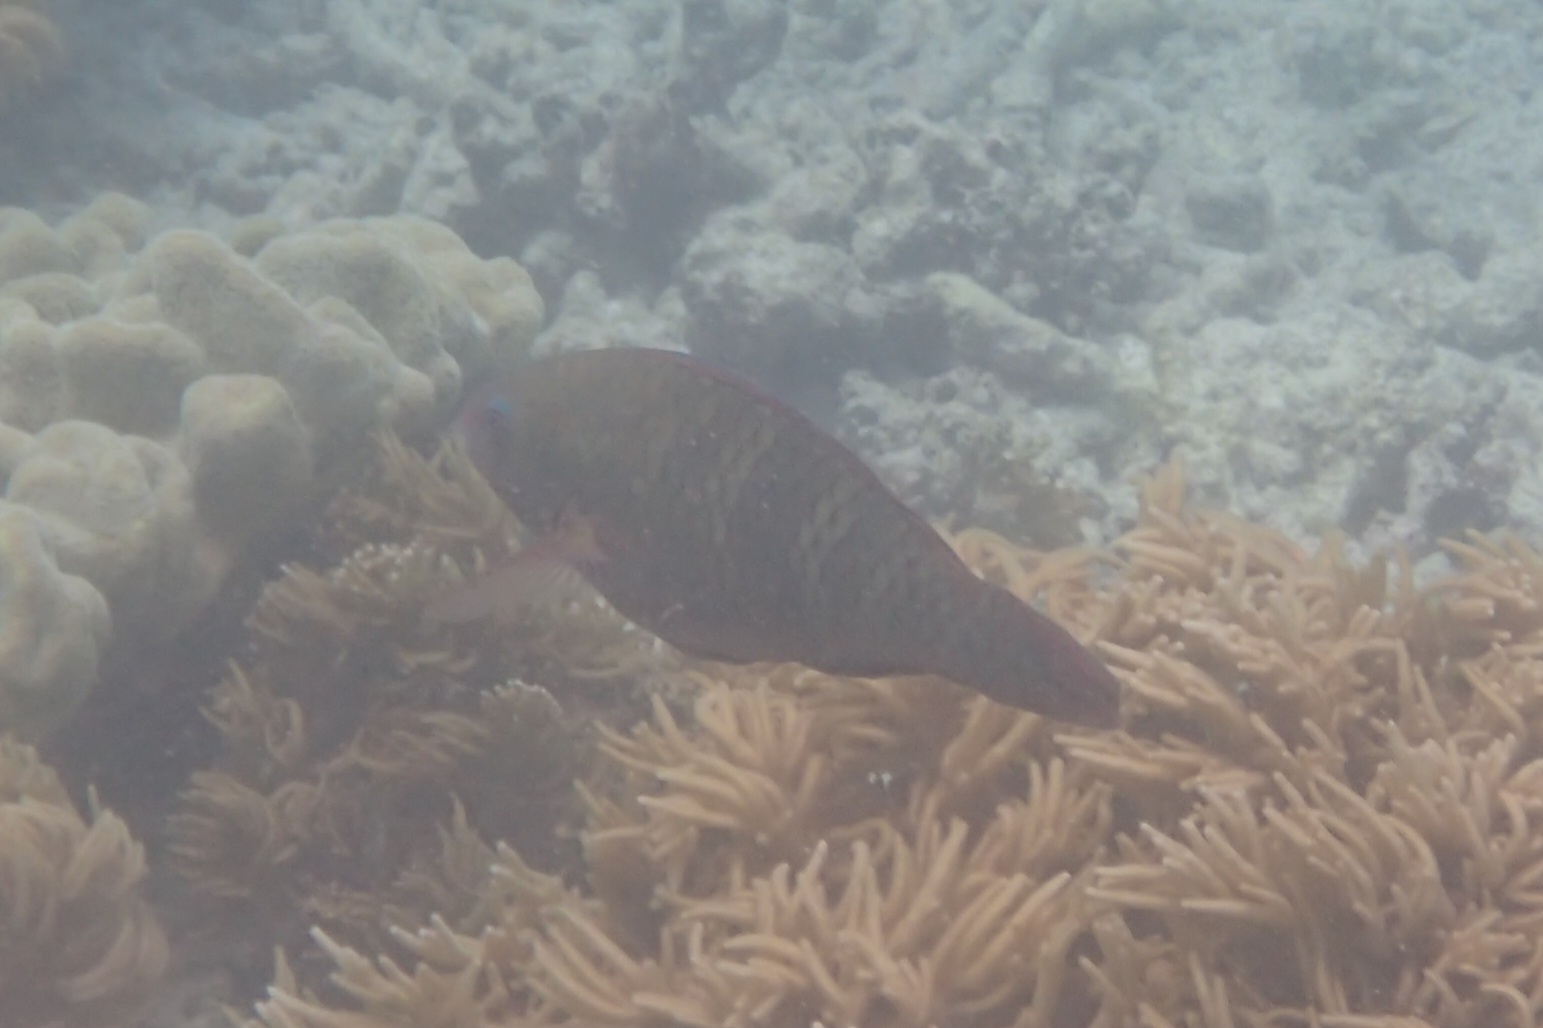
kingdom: Animalia
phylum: Chordata
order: Perciformes
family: Scaridae
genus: Scarus
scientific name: Scarus schlegeli
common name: Schlegel's parrotfish
